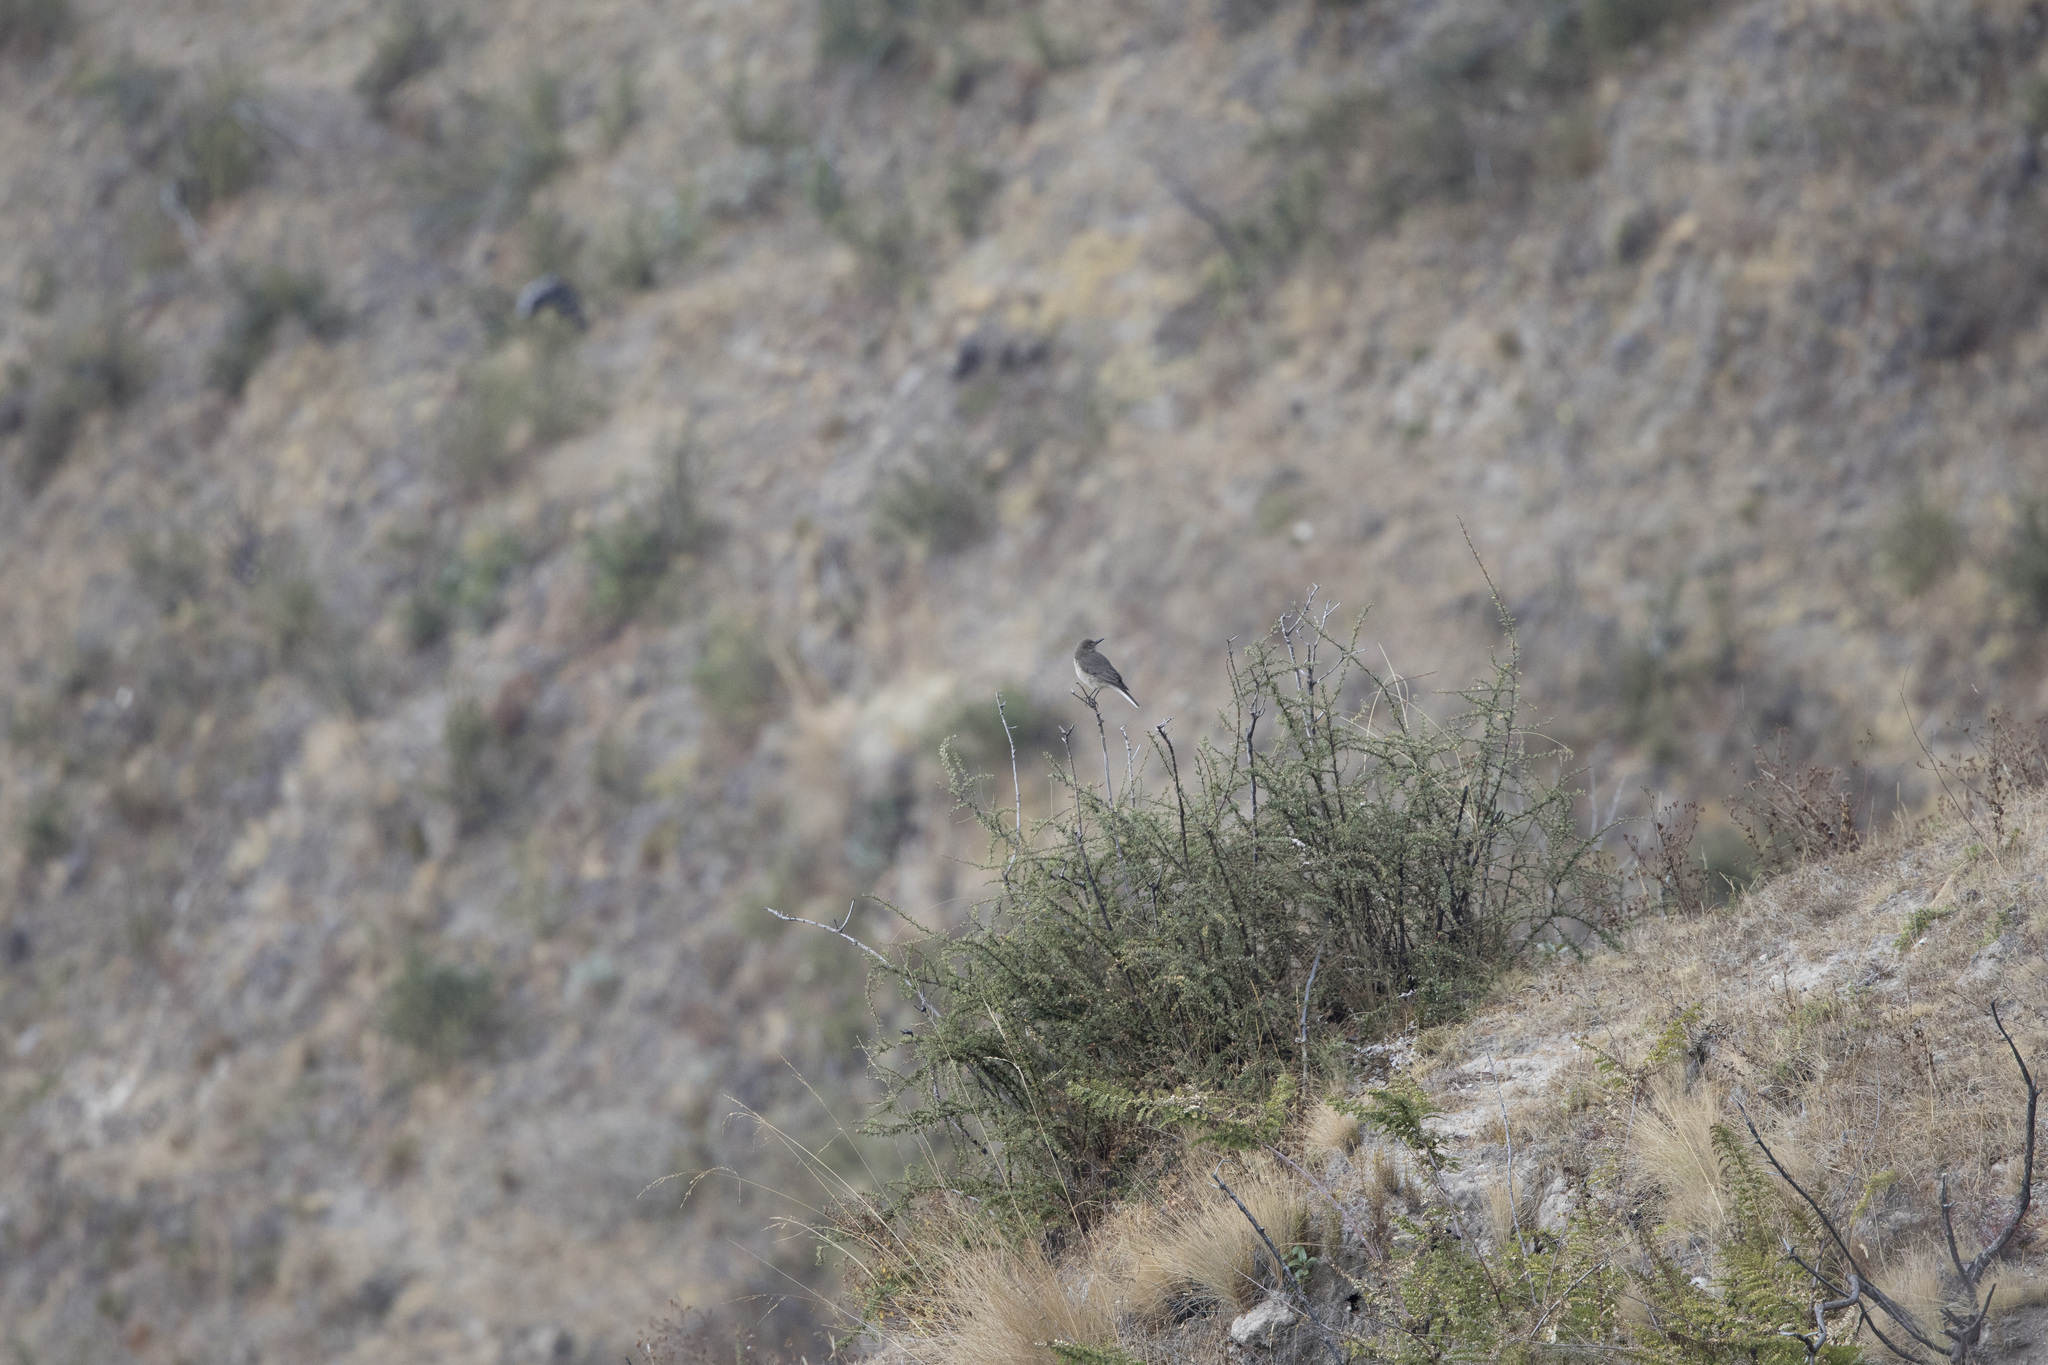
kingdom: Animalia
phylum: Chordata
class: Aves
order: Passeriformes
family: Tyrannidae
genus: Agriornis
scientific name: Agriornis montanus
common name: Black-billed shrike-tyrant
